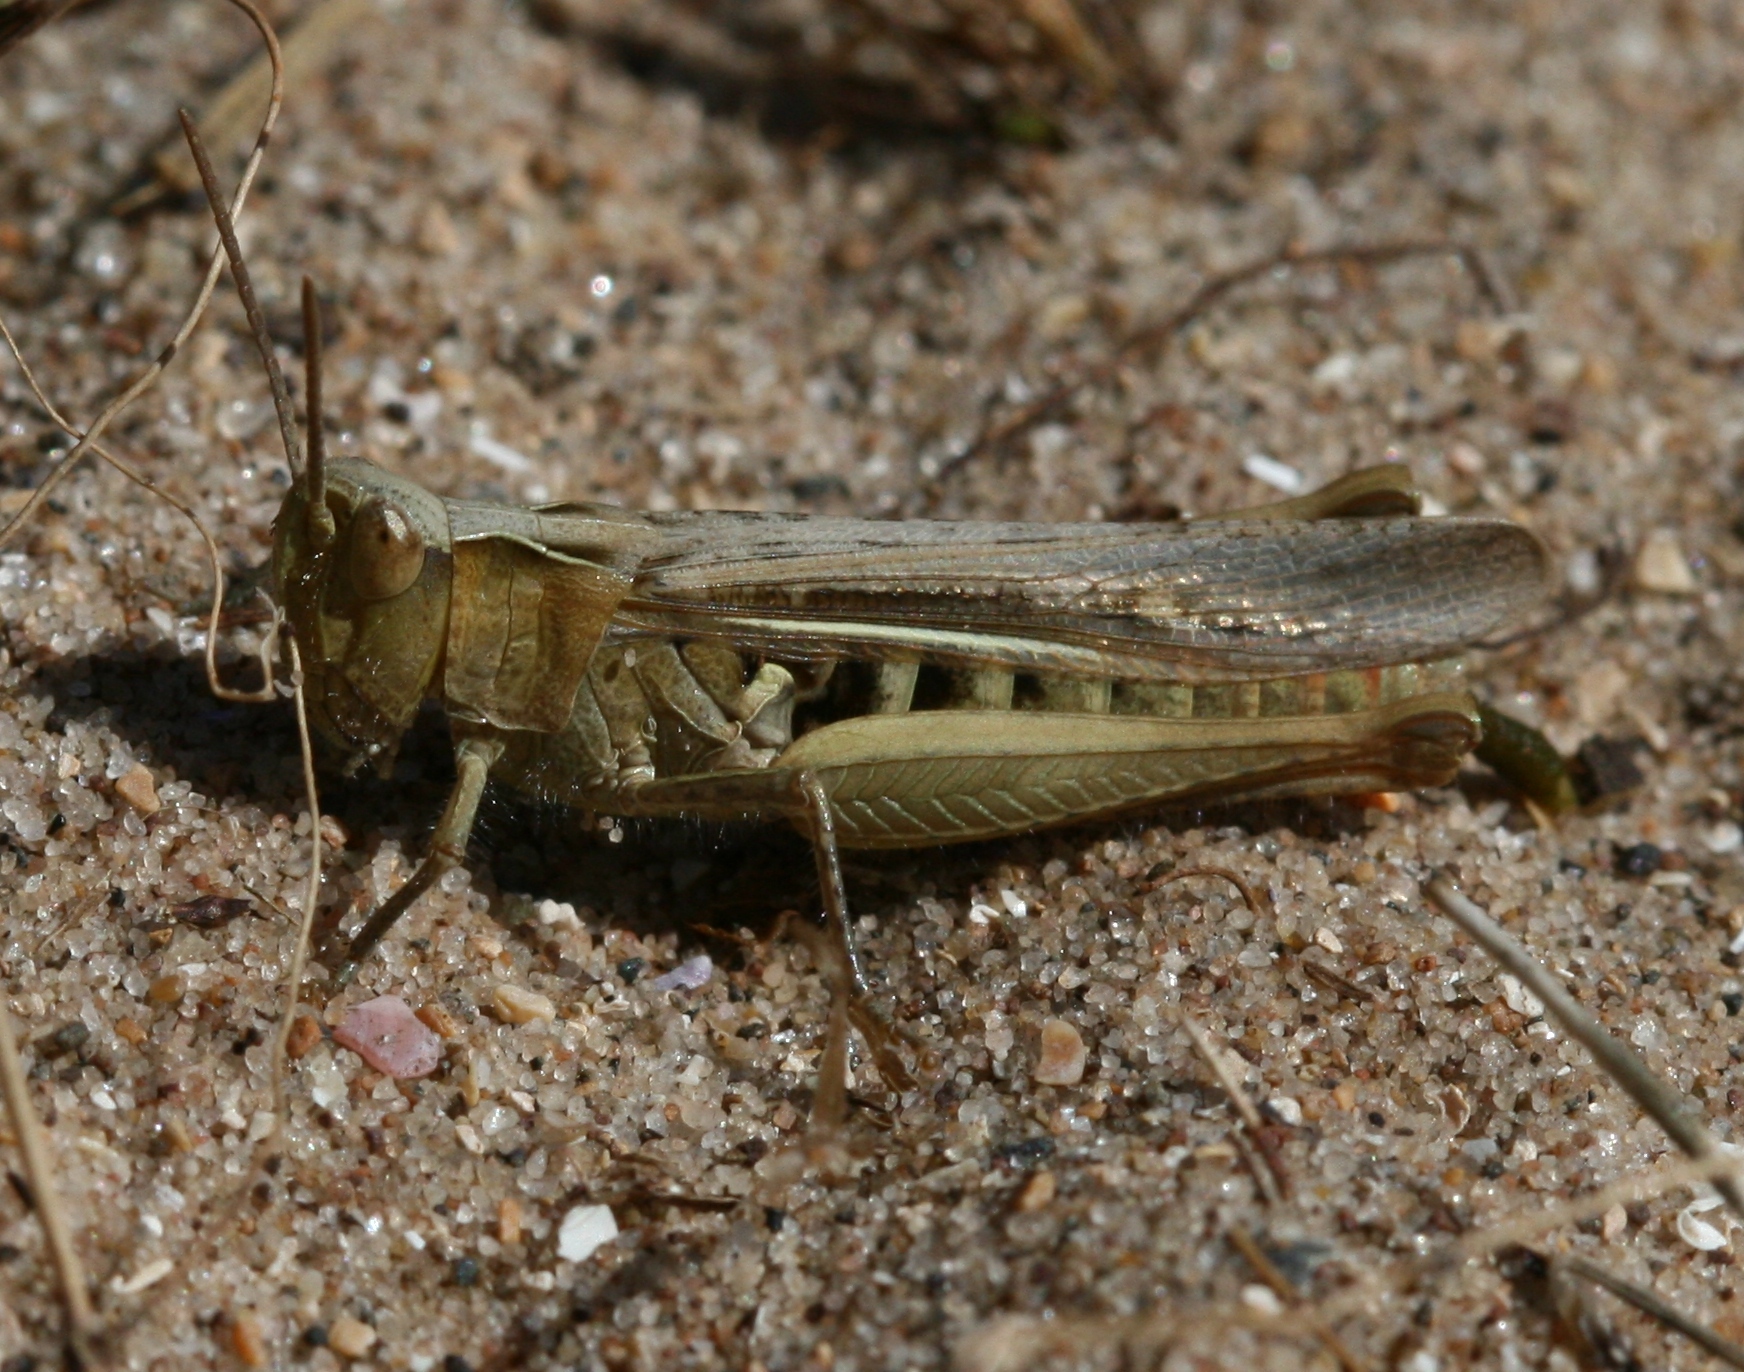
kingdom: Animalia
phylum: Arthropoda
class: Insecta
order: Orthoptera
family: Acrididae
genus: Chorthippus
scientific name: Chorthippus brunneus
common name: Field grasshopper
